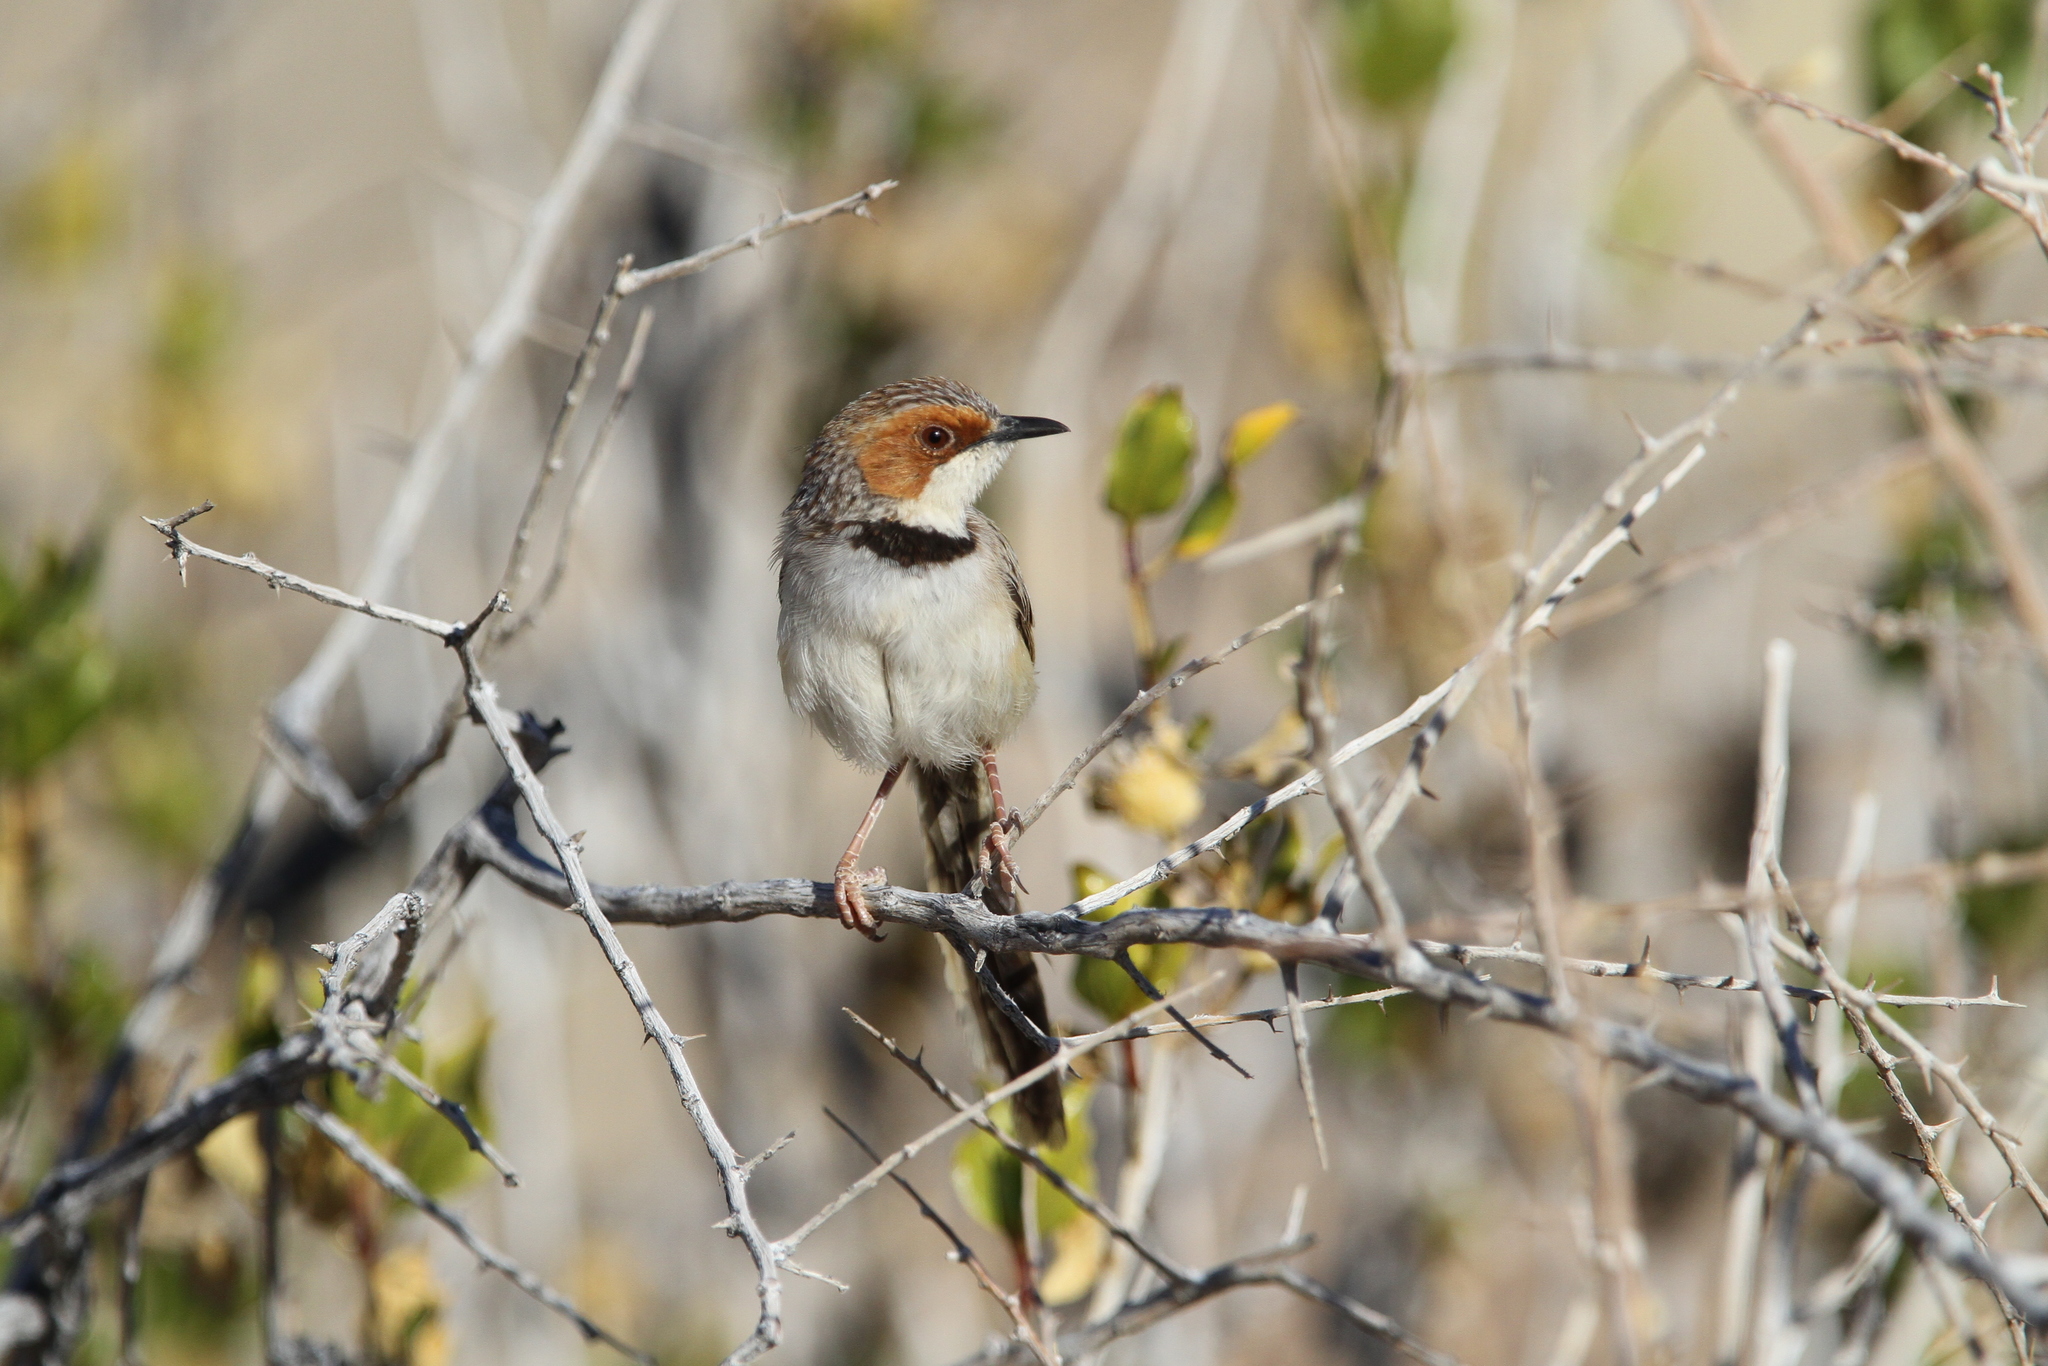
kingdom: Animalia
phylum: Chordata
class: Aves
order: Passeriformes
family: Cisticolidae
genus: Malcorus
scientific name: Malcorus pectoralis
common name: Rufous-eared warbler
